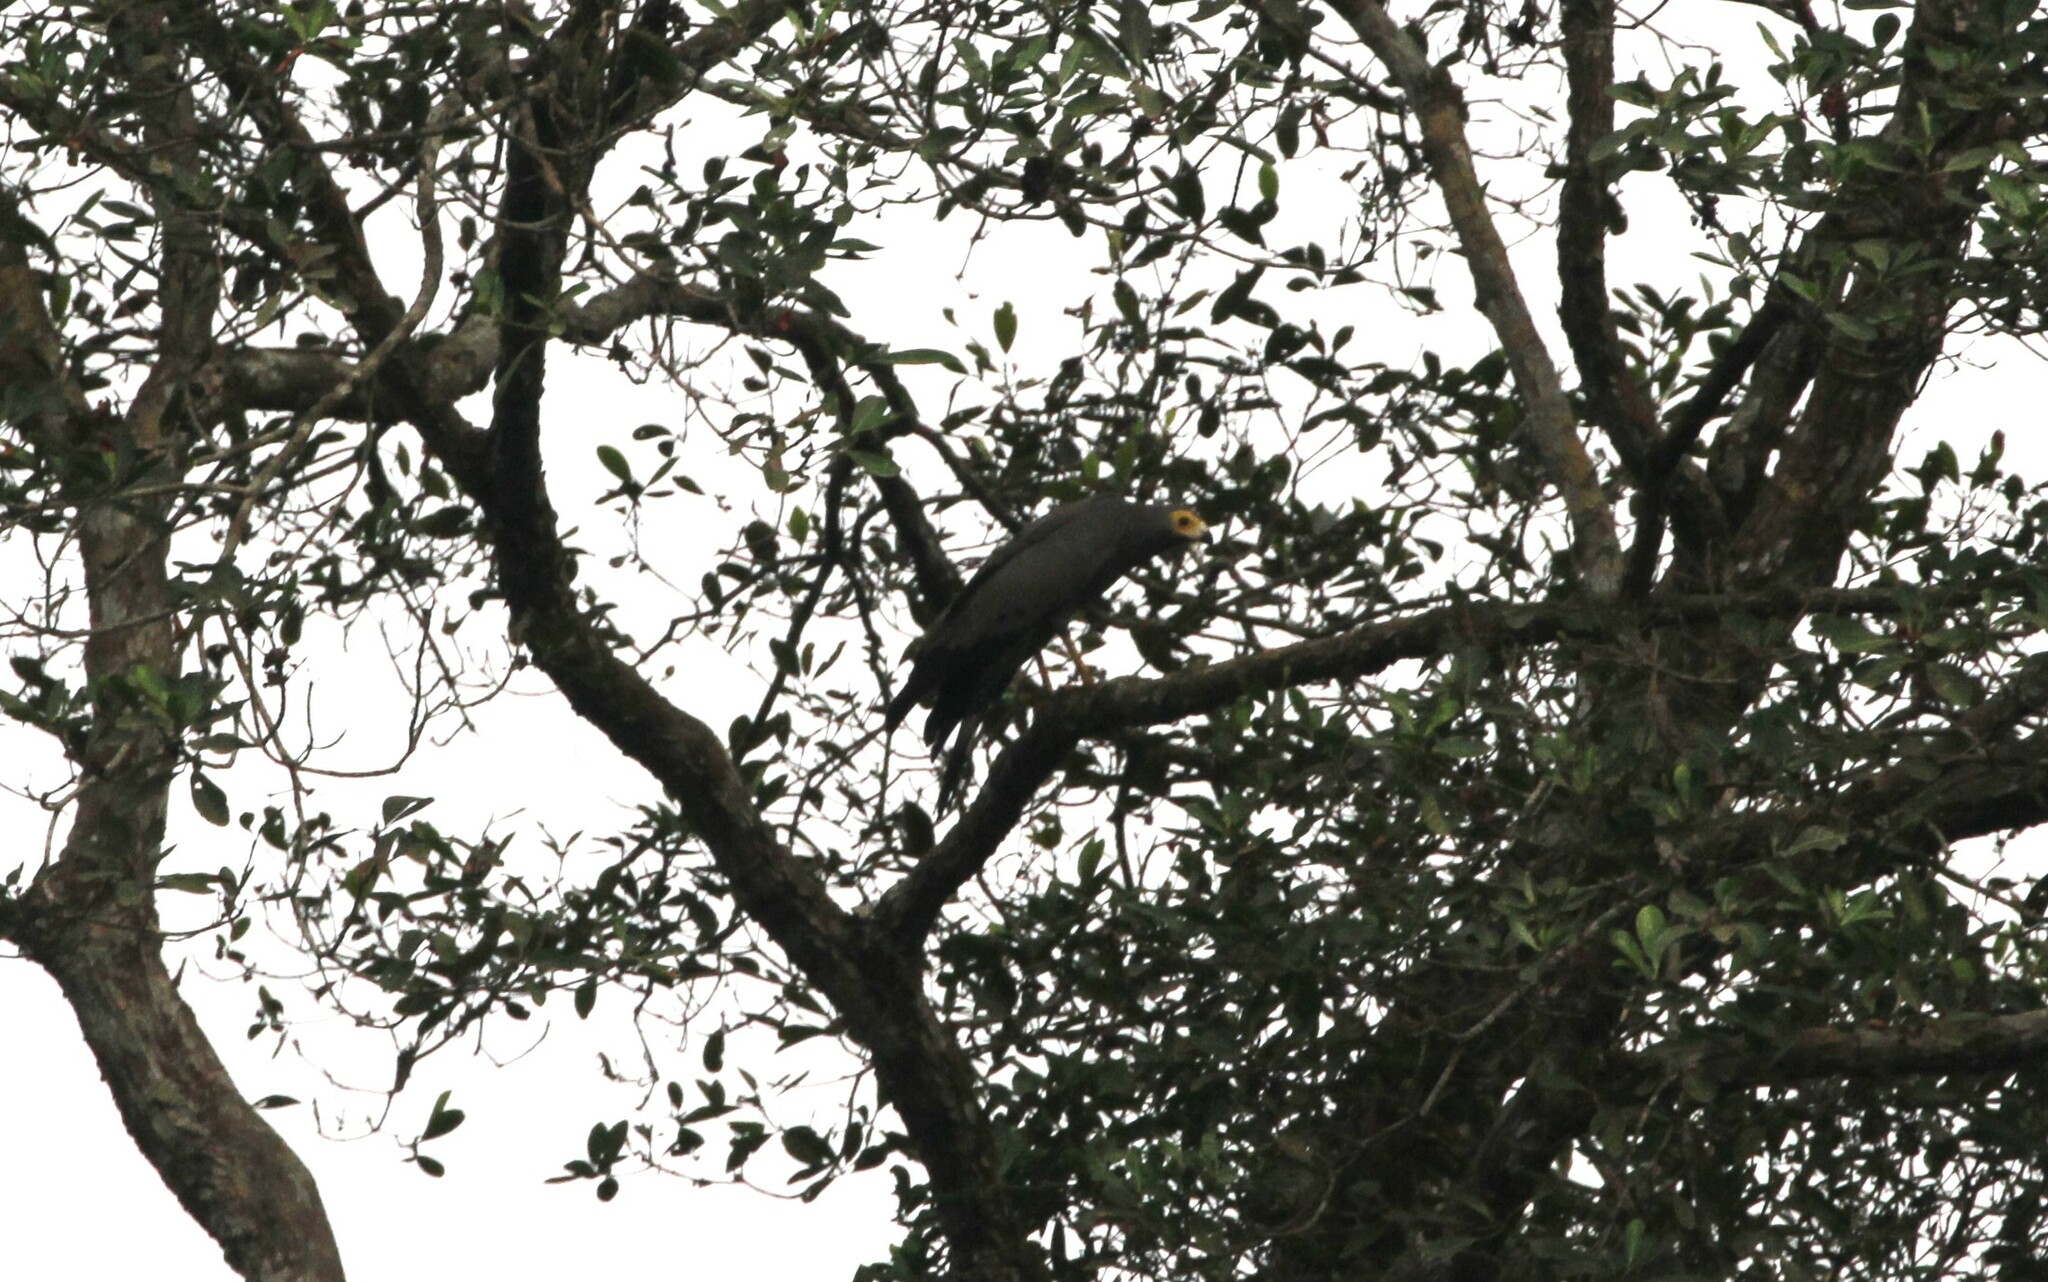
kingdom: Animalia
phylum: Chordata
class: Aves
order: Accipitriformes
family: Accipitridae
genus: Polyboroides
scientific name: Polyboroides typus
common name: African harrier-hawk
